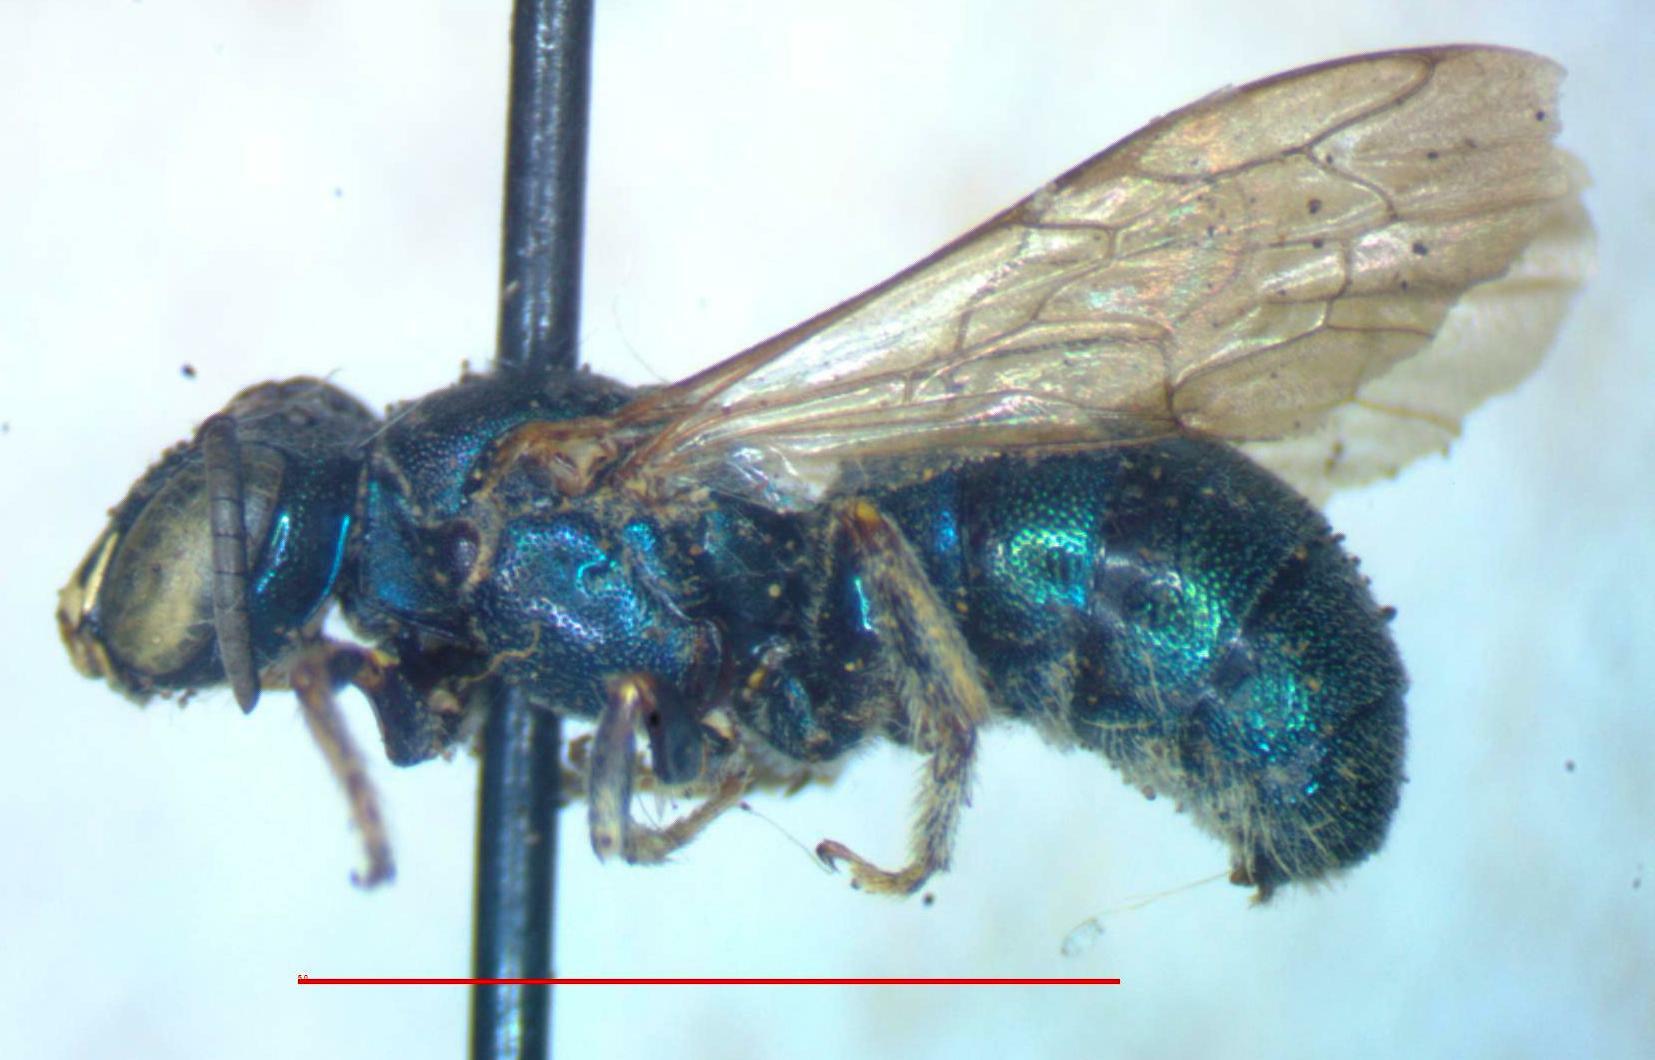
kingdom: Animalia
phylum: Arthropoda
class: Insecta
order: Hymenoptera
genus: Calloceratina
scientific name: Calloceratina
